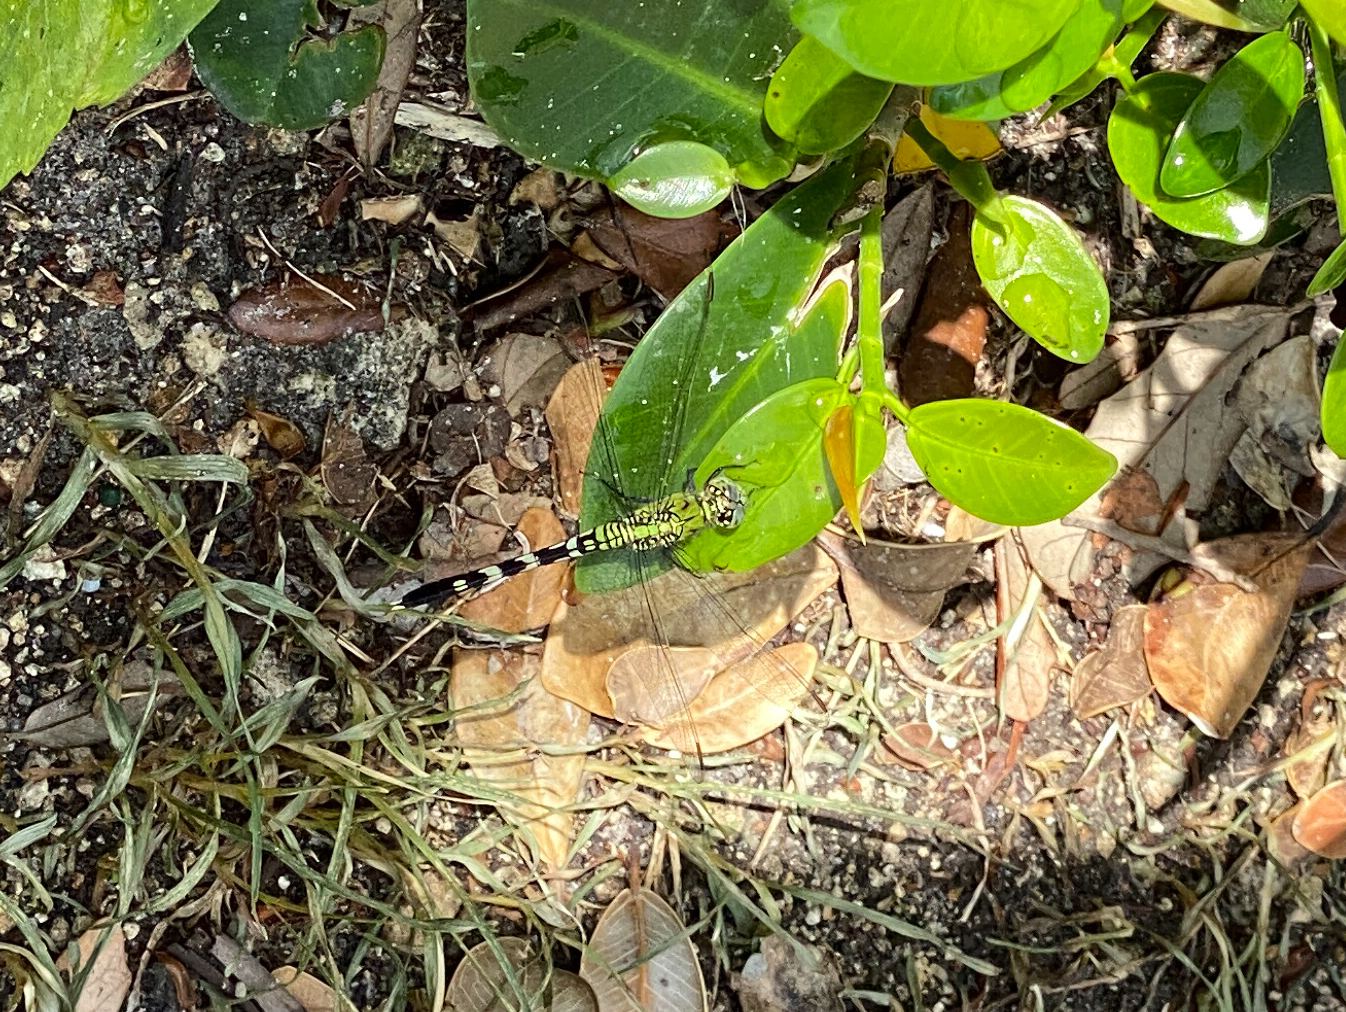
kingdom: Animalia
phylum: Arthropoda
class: Insecta
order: Odonata
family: Libellulidae
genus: Erythemis
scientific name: Erythemis simplicicollis
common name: Eastern pondhawk
